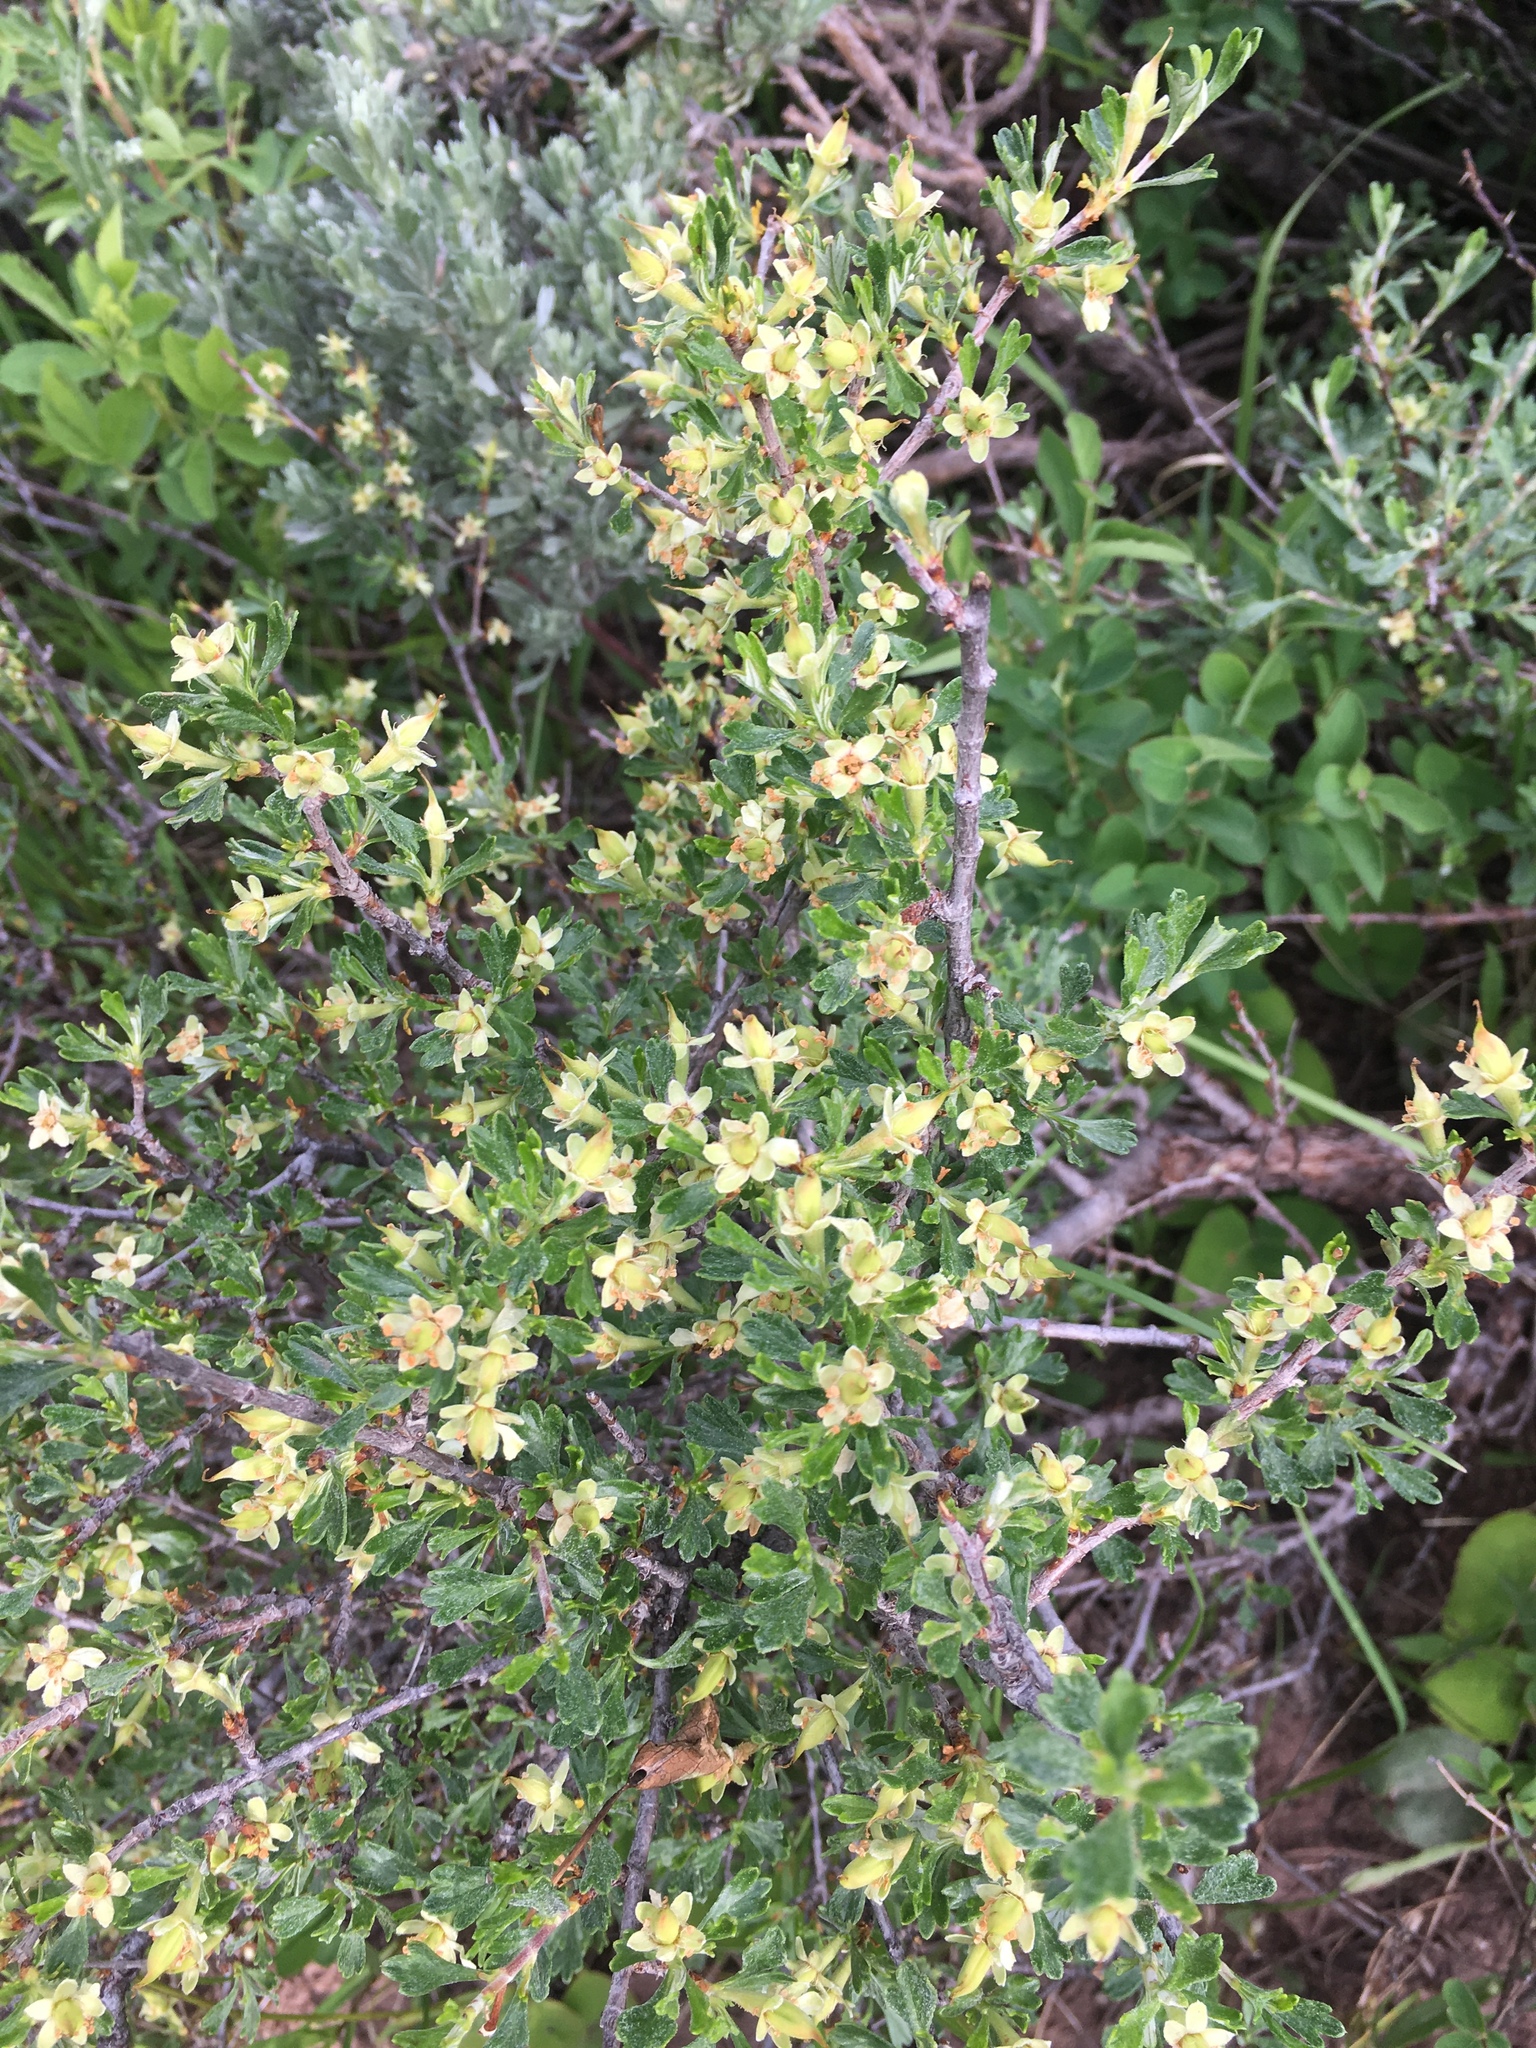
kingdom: Plantae
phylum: Tracheophyta
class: Magnoliopsida
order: Rosales
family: Rosaceae
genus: Purshia
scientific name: Purshia tridentata
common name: Antelope bitterbrush
